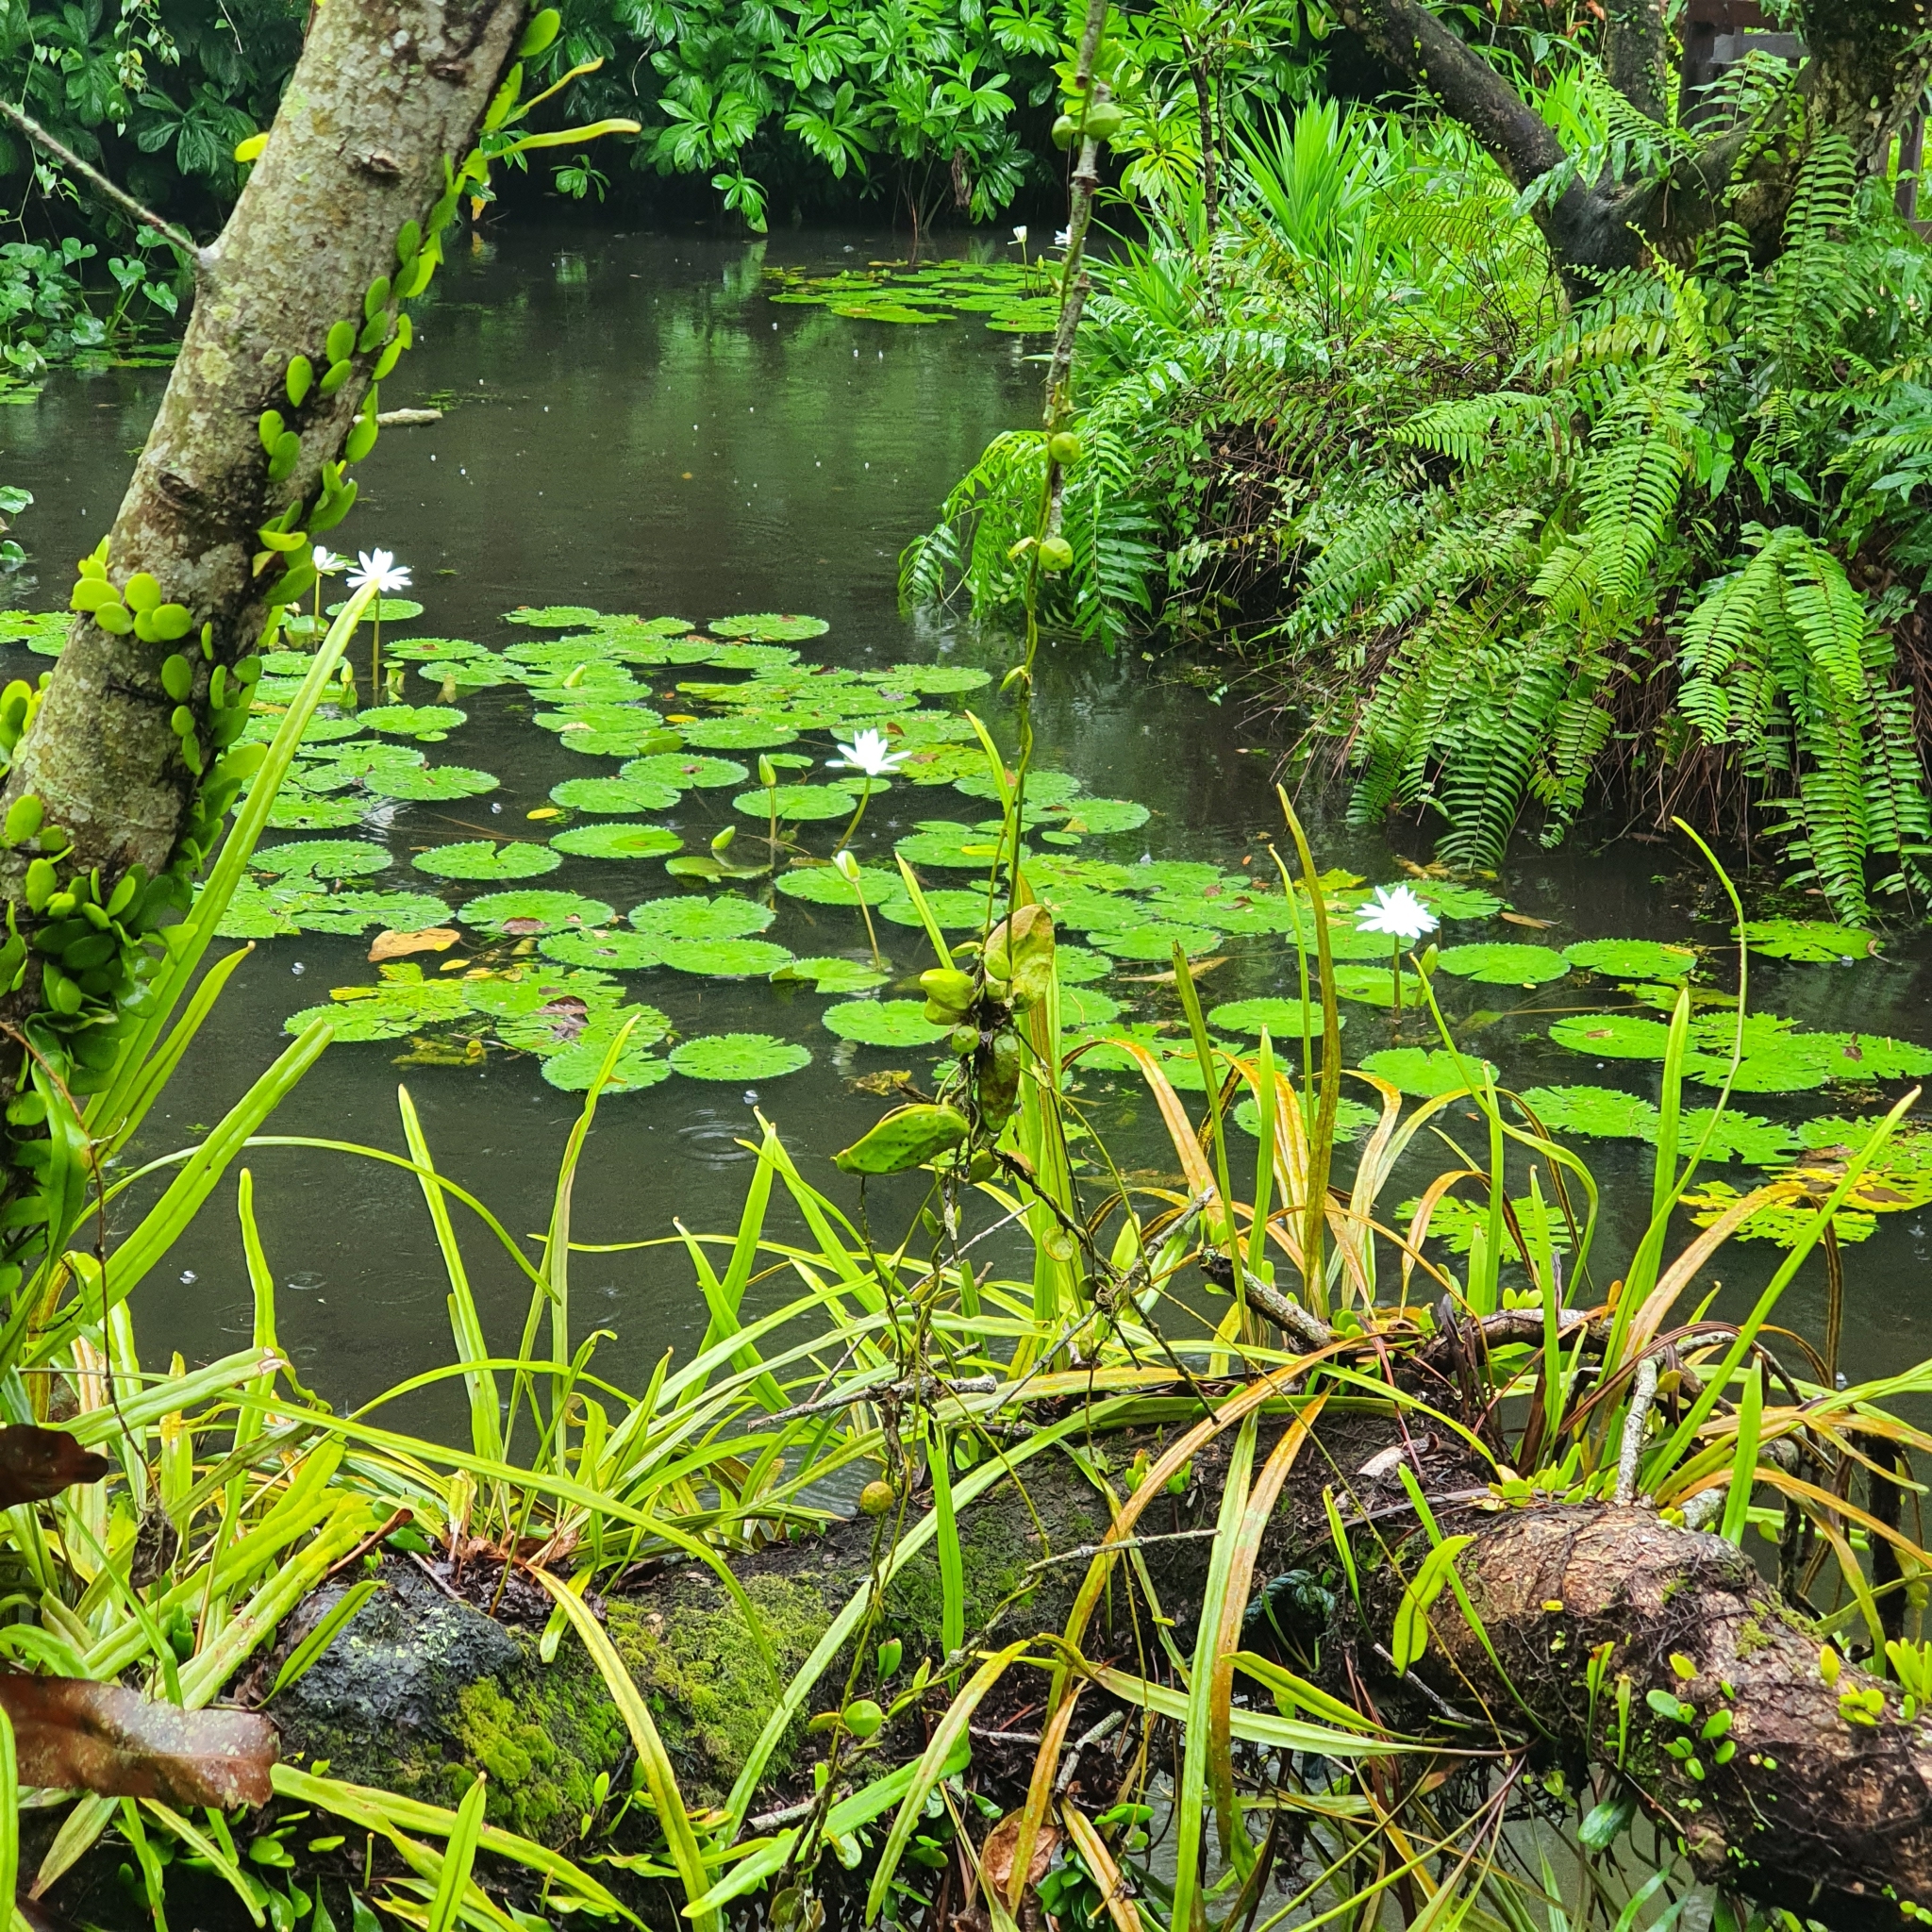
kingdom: Plantae
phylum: Tracheophyta
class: Magnoliopsida
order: Gentianales
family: Apocynaceae
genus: Dischidia
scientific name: Dischidia major
